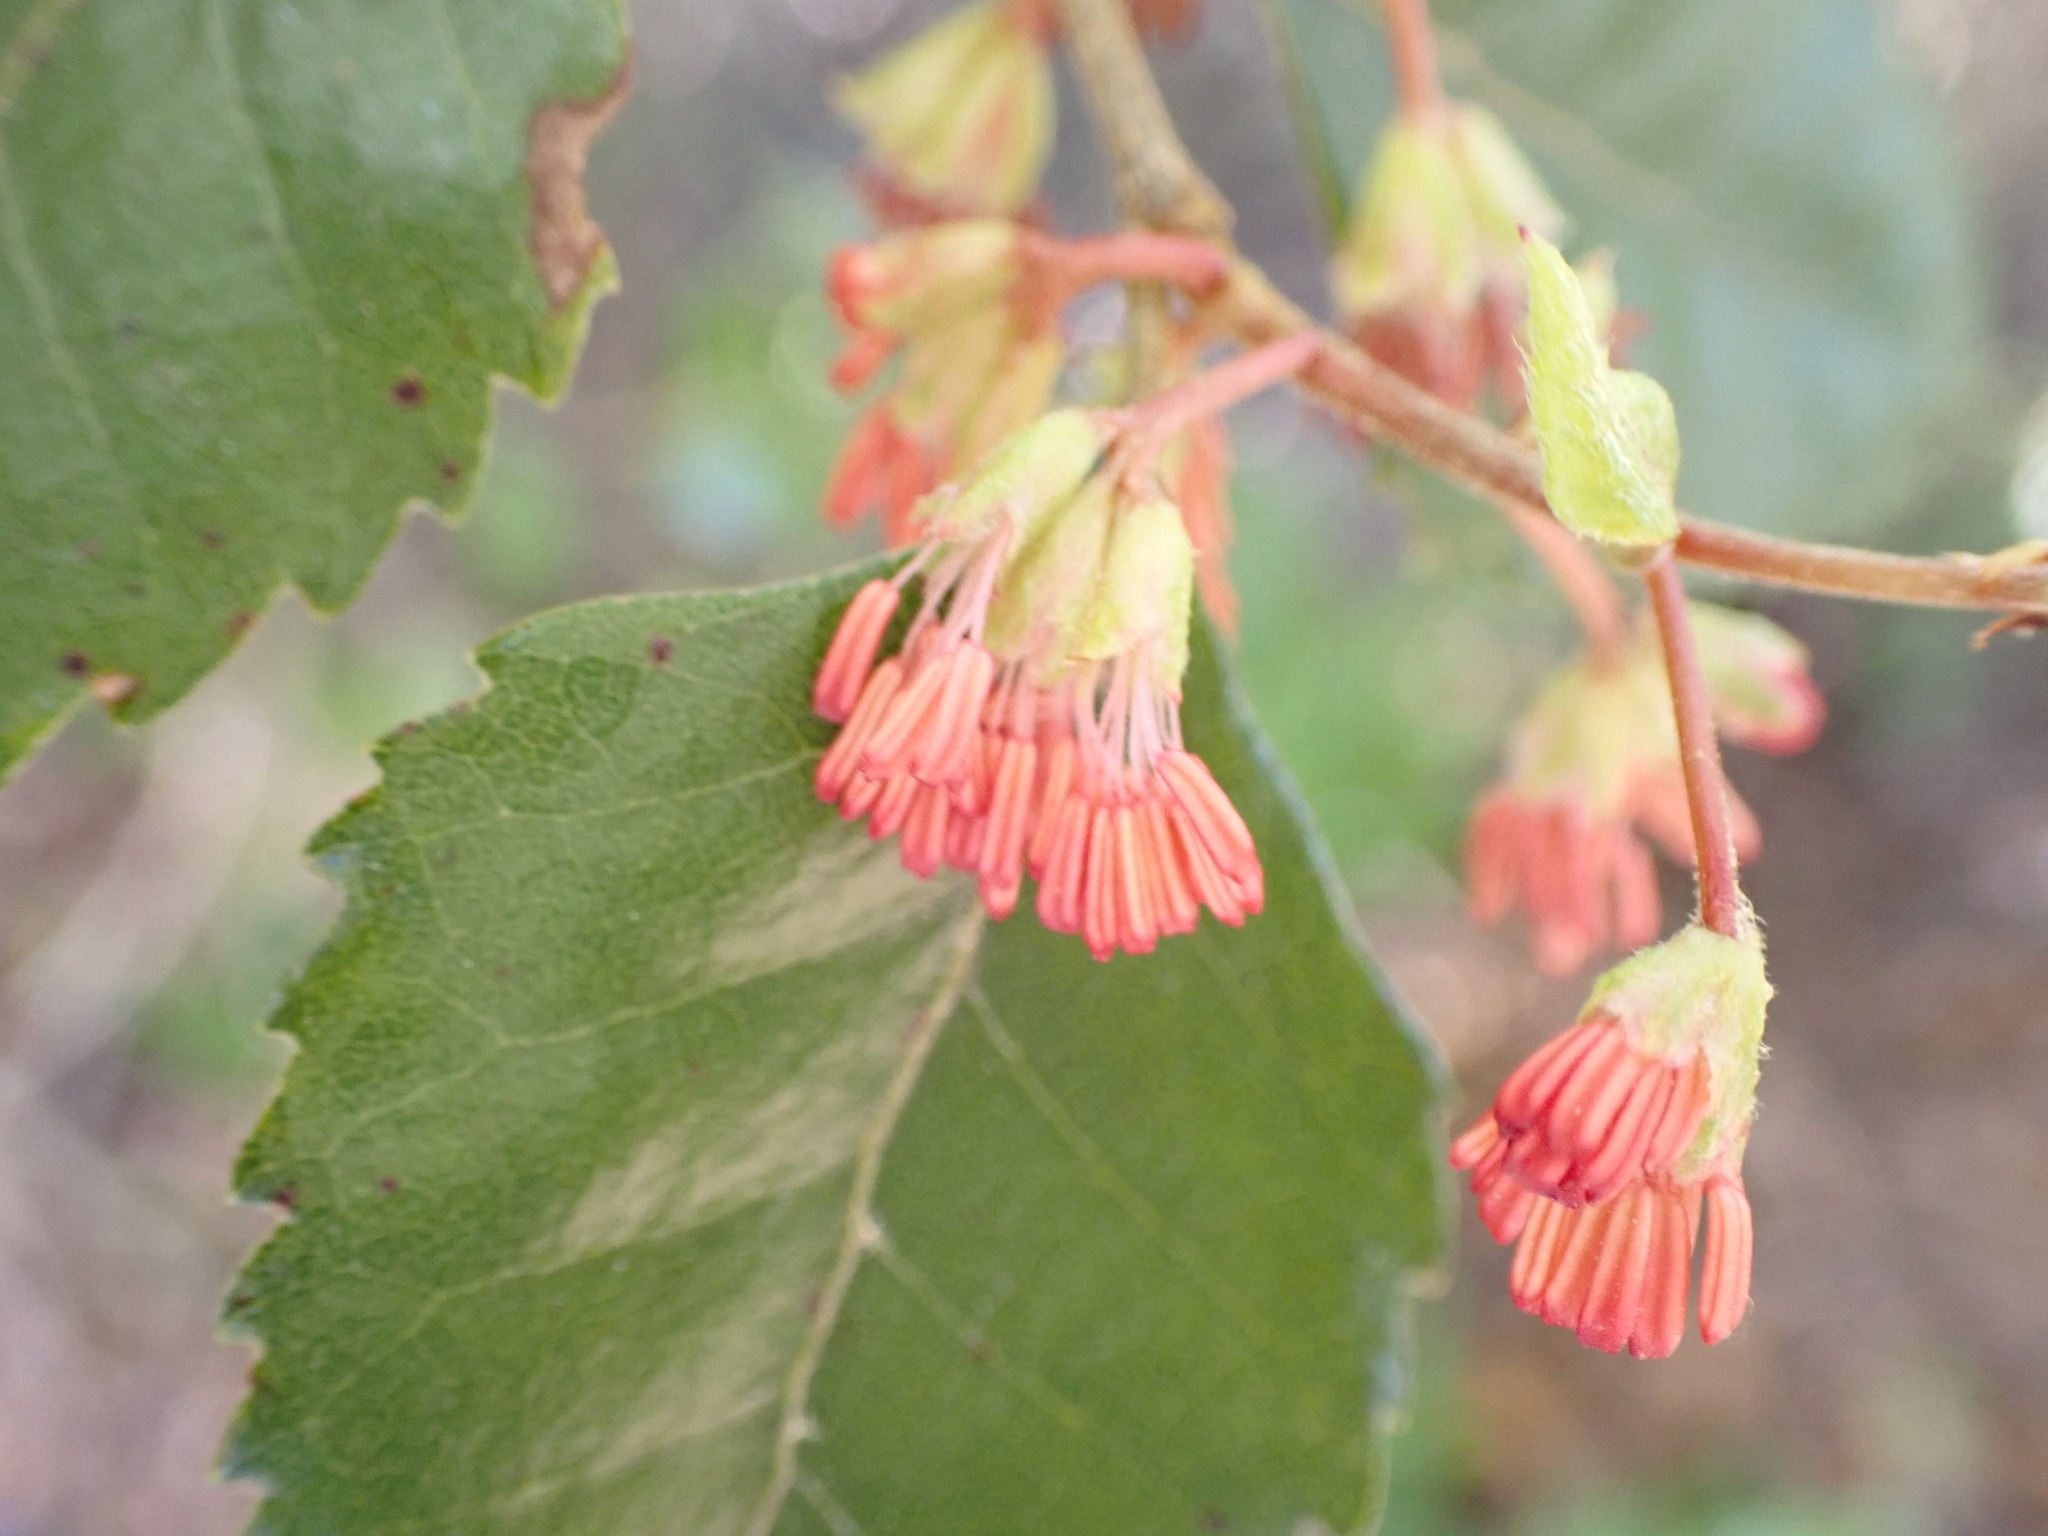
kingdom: Plantae
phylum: Tracheophyta
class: Magnoliopsida
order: Fagales
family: Nothofagaceae
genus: Nothofagus
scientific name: Nothofagus truncata
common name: Hard beech
